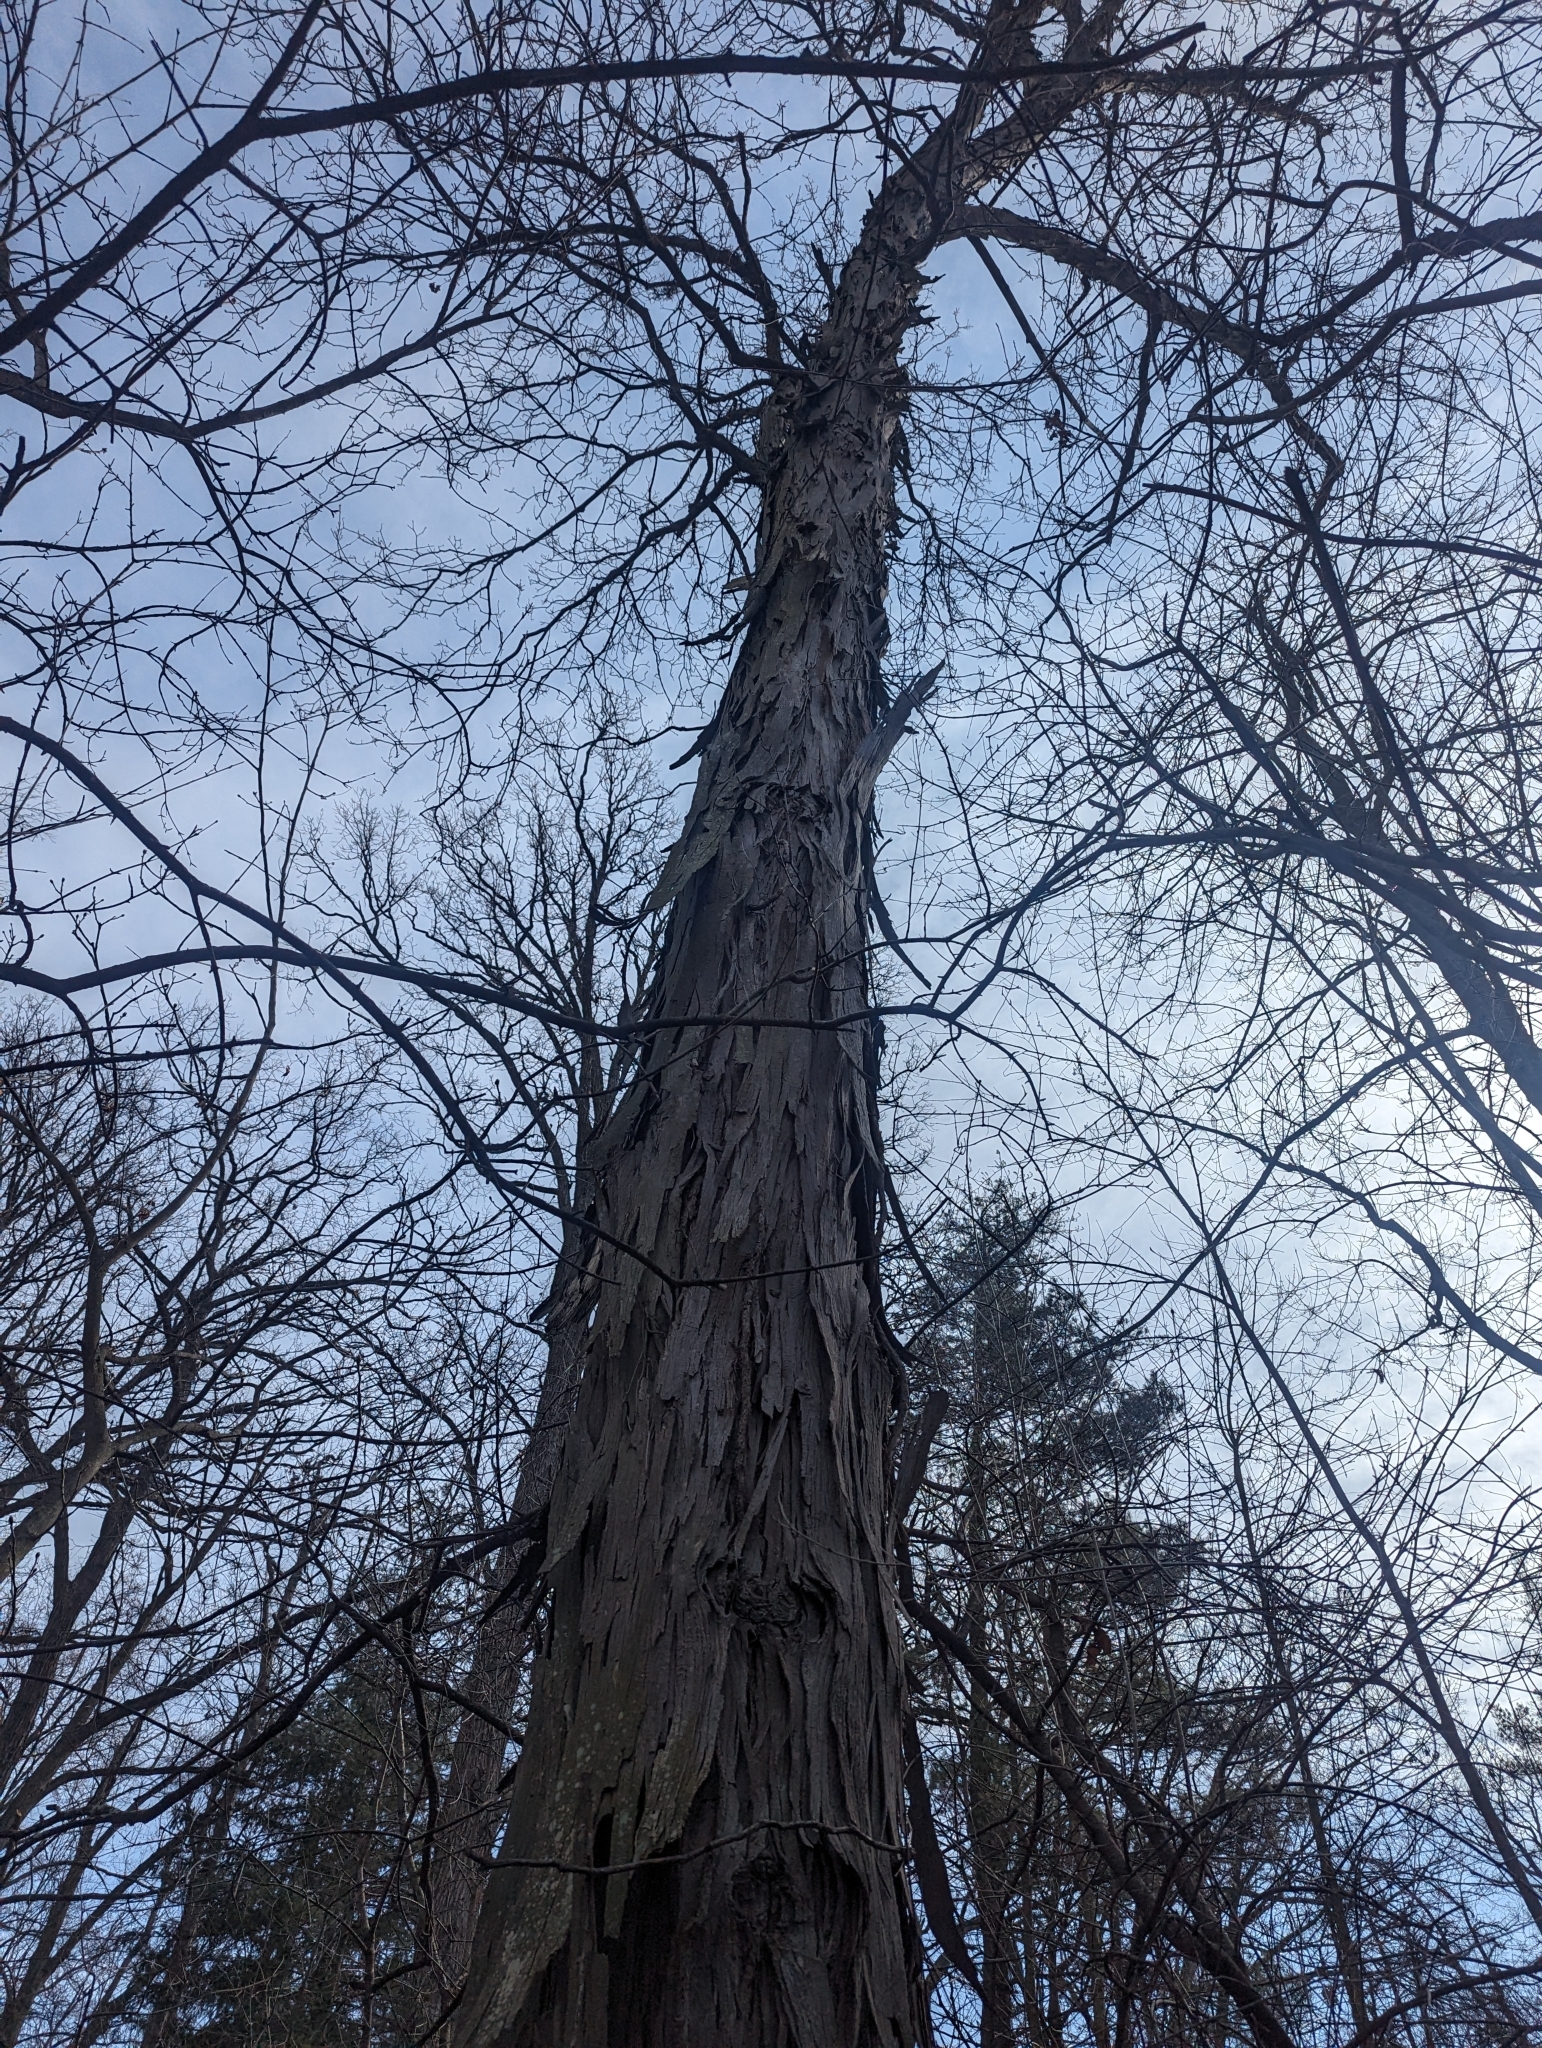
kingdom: Plantae
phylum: Tracheophyta
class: Magnoliopsida
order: Fagales
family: Juglandaceae
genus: Carya
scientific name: Carya ovata
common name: Shagbark hickory
